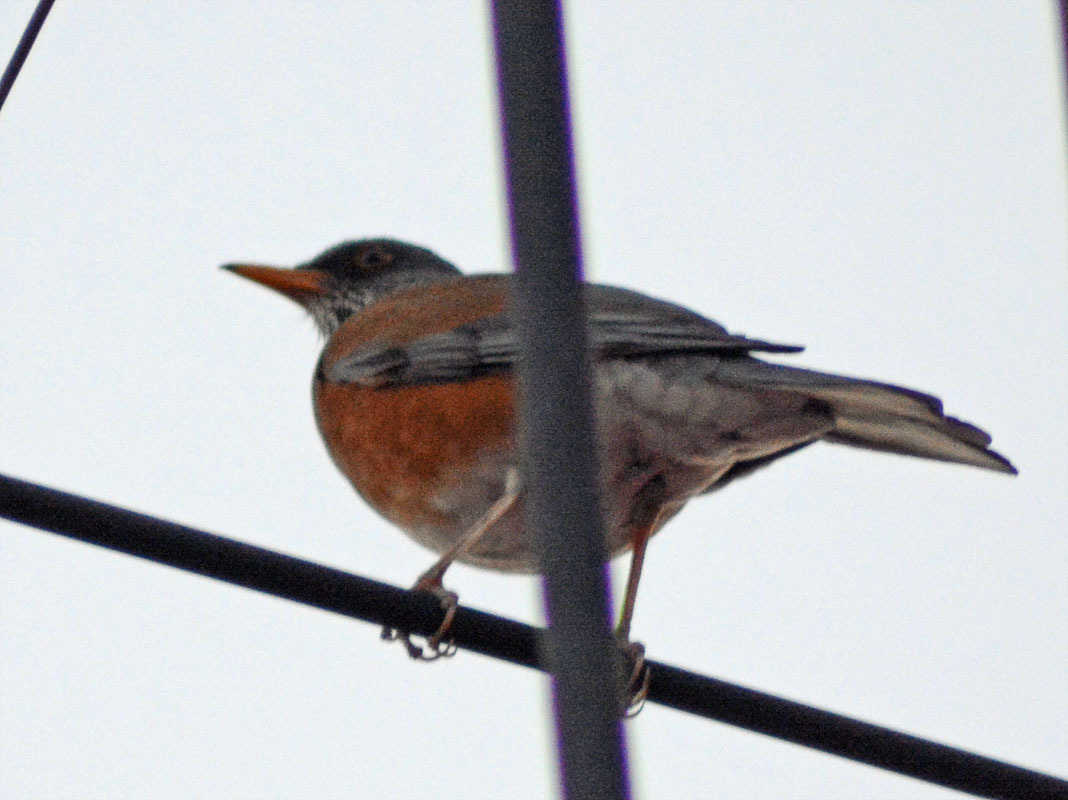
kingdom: Animalia
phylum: Chordata
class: Aves
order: Passeriformes
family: Turdidae
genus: Turdus
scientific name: Turdus rufopalliatus
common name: Rufous-backed robin
